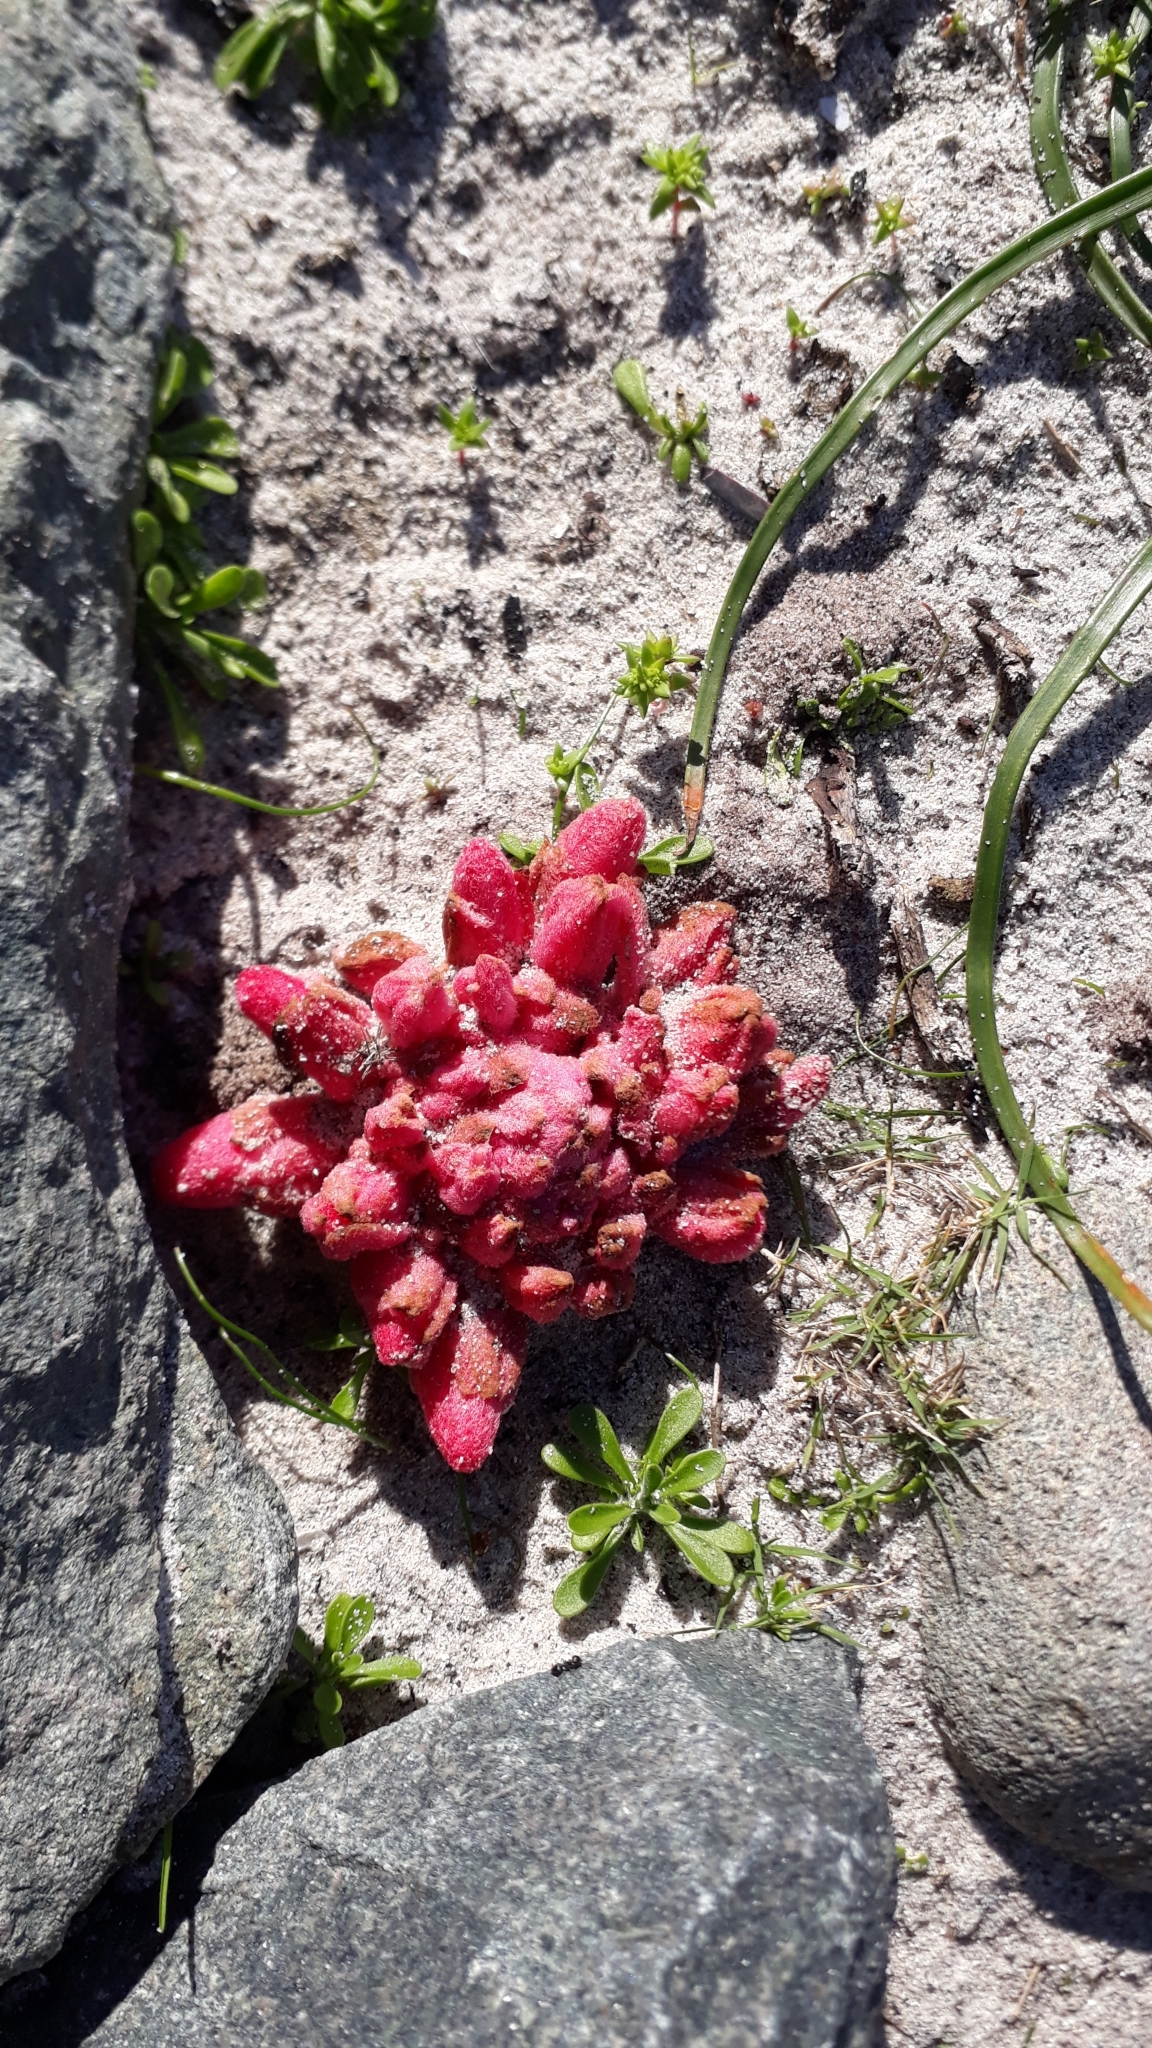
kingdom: Plantae
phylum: Tracheophyta
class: Magnoliopsida
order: Lamiales
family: Orobanchaceae
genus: Hyobanche
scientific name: Hyobanche sanguinea
